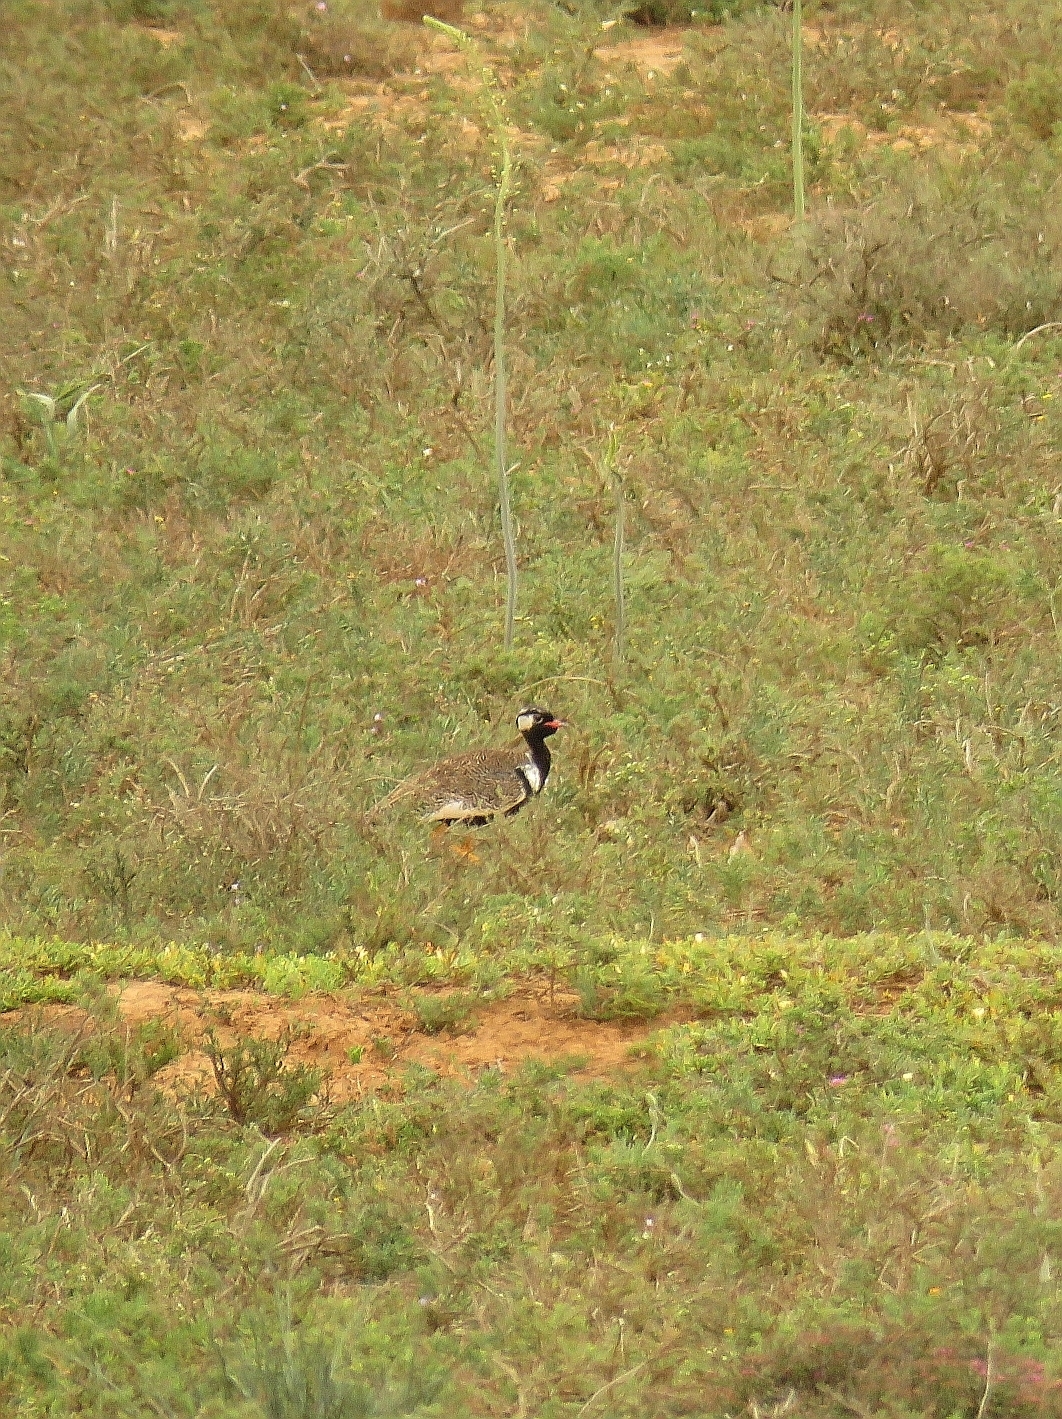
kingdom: Animalia
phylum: Chordata
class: Aves
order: Otidiformes
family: Otididae
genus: Afrotis
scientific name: Afrotis afra
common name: Southern black korhaan
